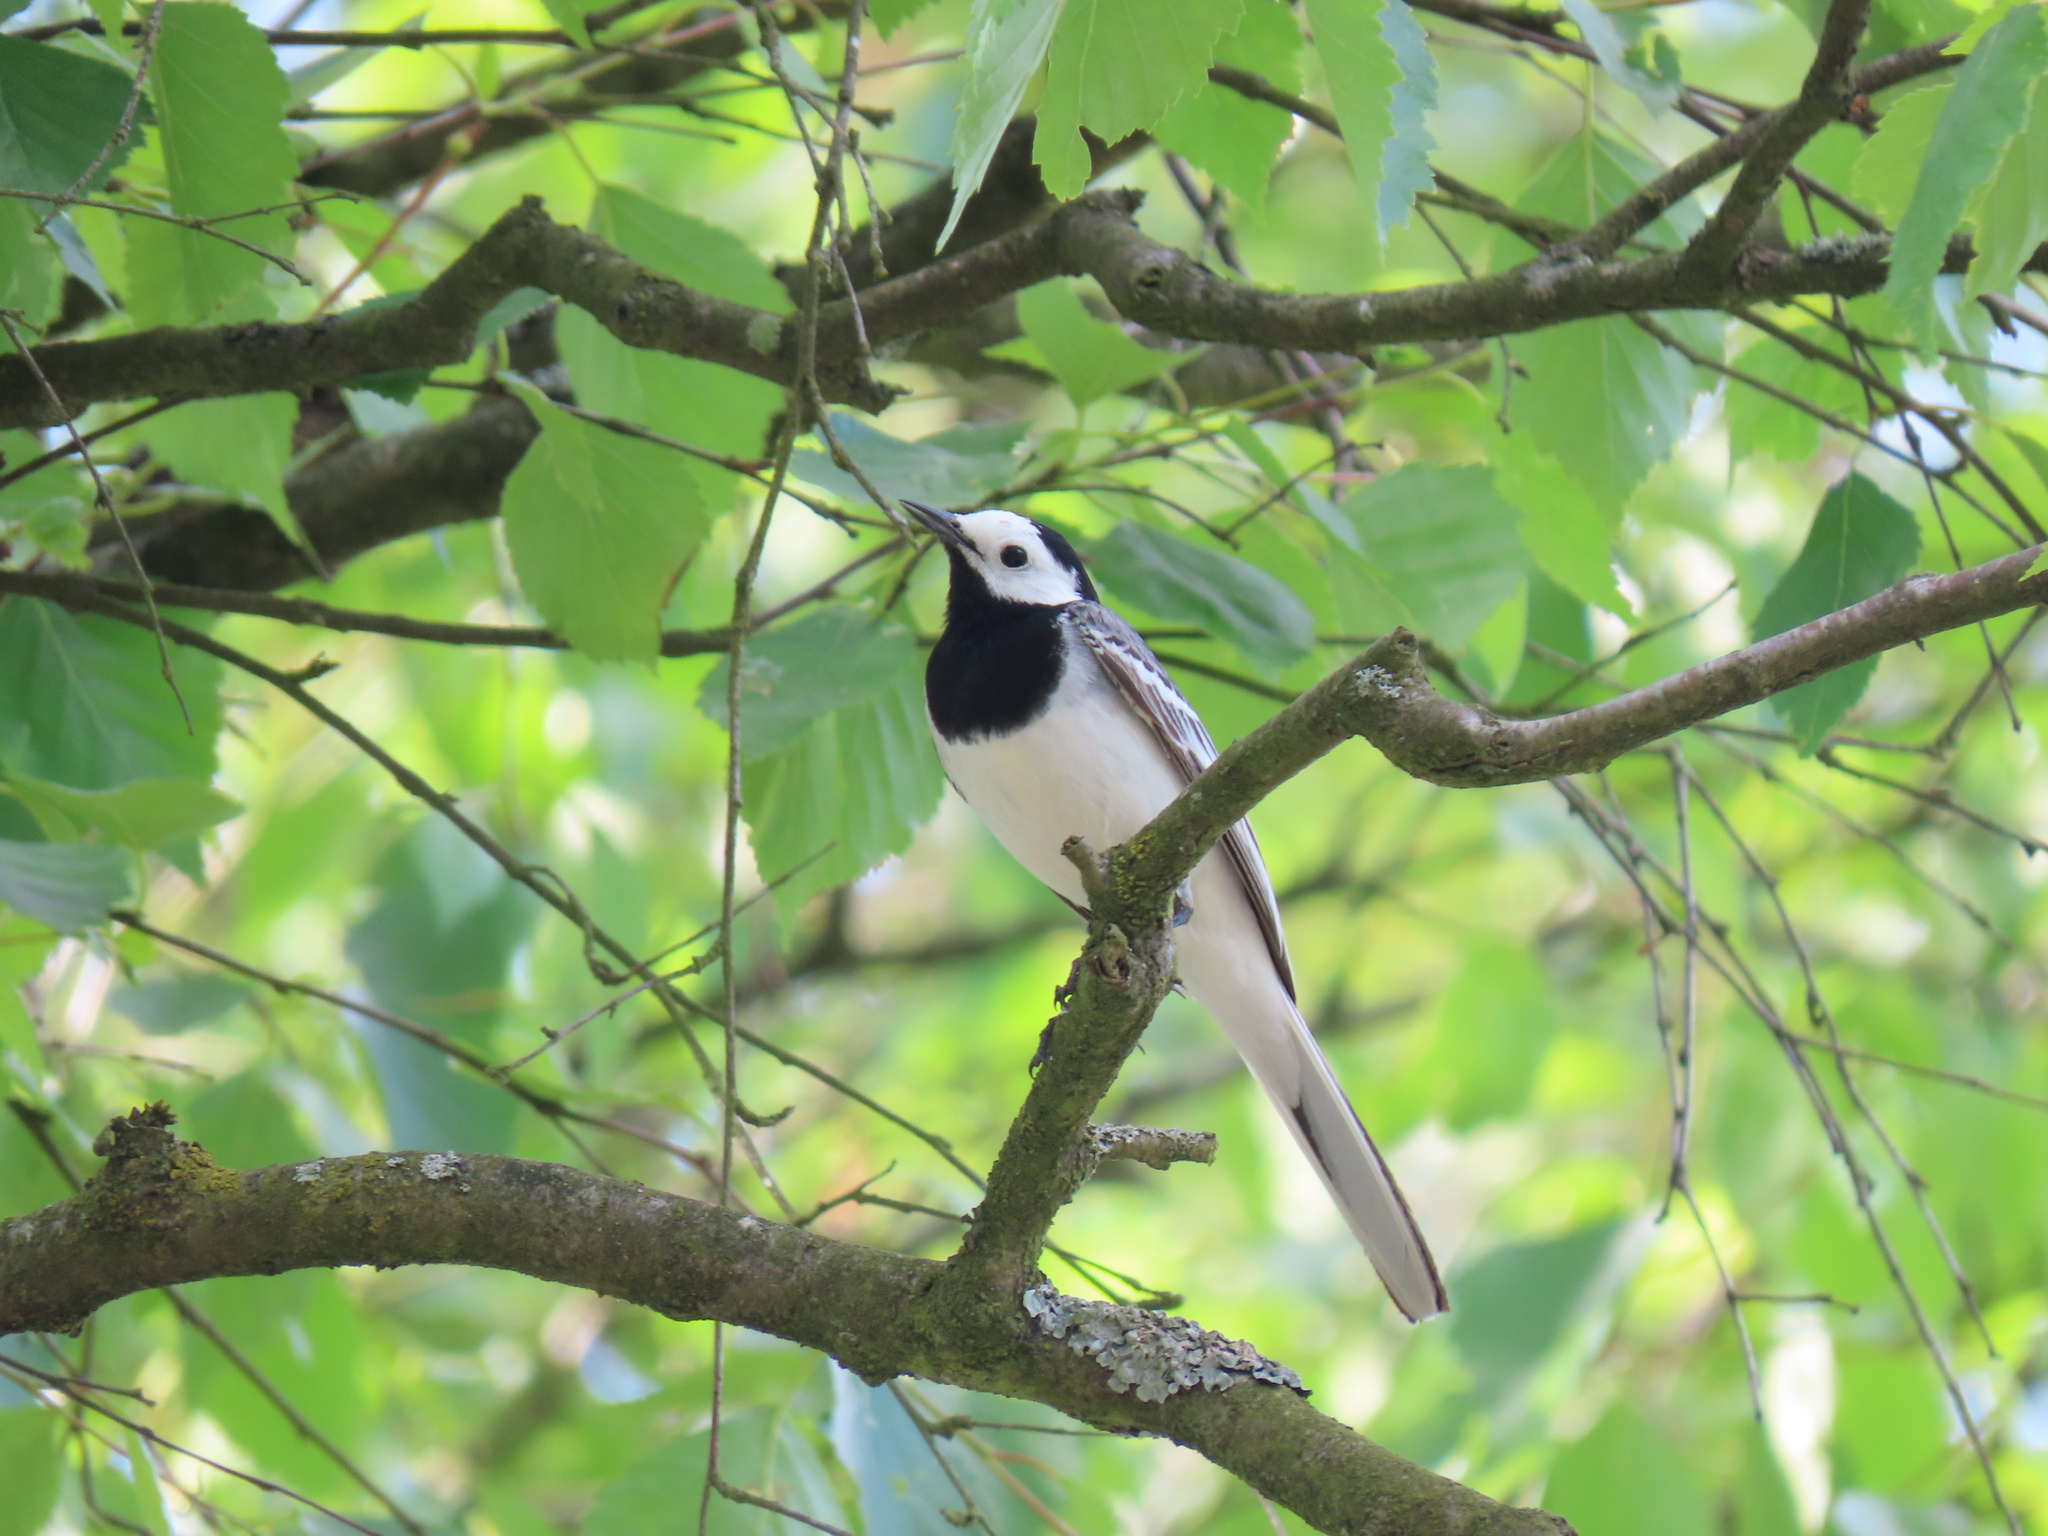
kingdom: Animalia
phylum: Chordata
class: Aves
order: Passeriformes
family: Motacillidae
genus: Motacilla
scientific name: Motacilla alba
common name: White wagtail
